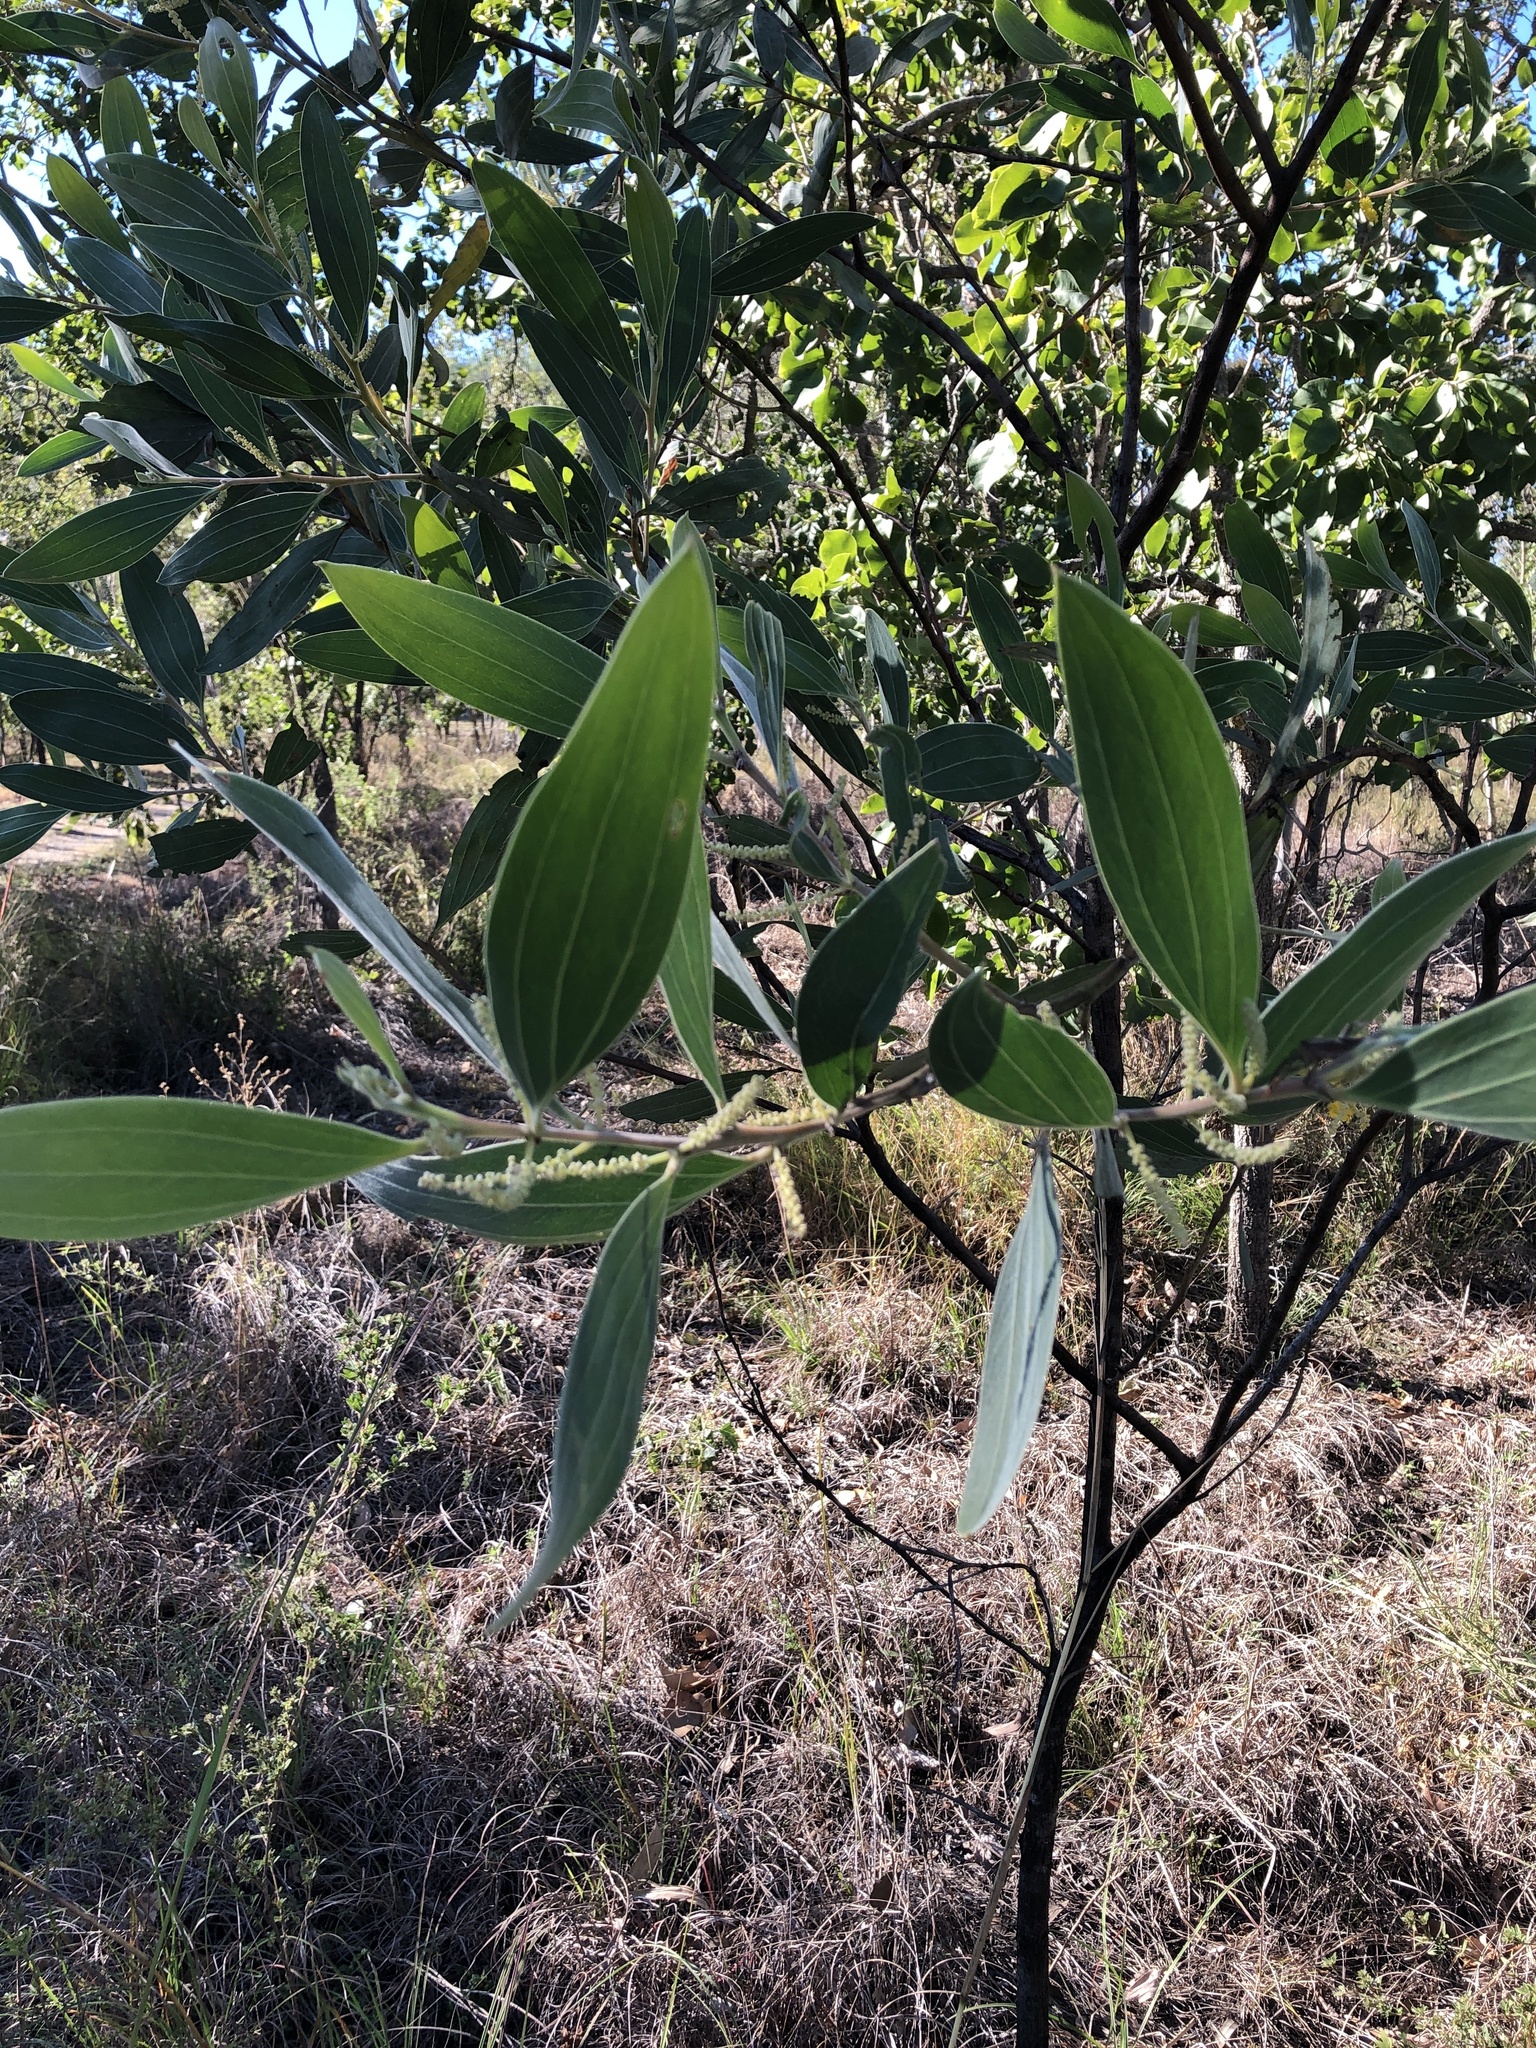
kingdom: Plantae
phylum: Tracheophyta
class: Magnoliopsida
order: Fabales
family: Fabaceae
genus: Acacia
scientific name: Acacia holosericea
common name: Candelabra wattle
